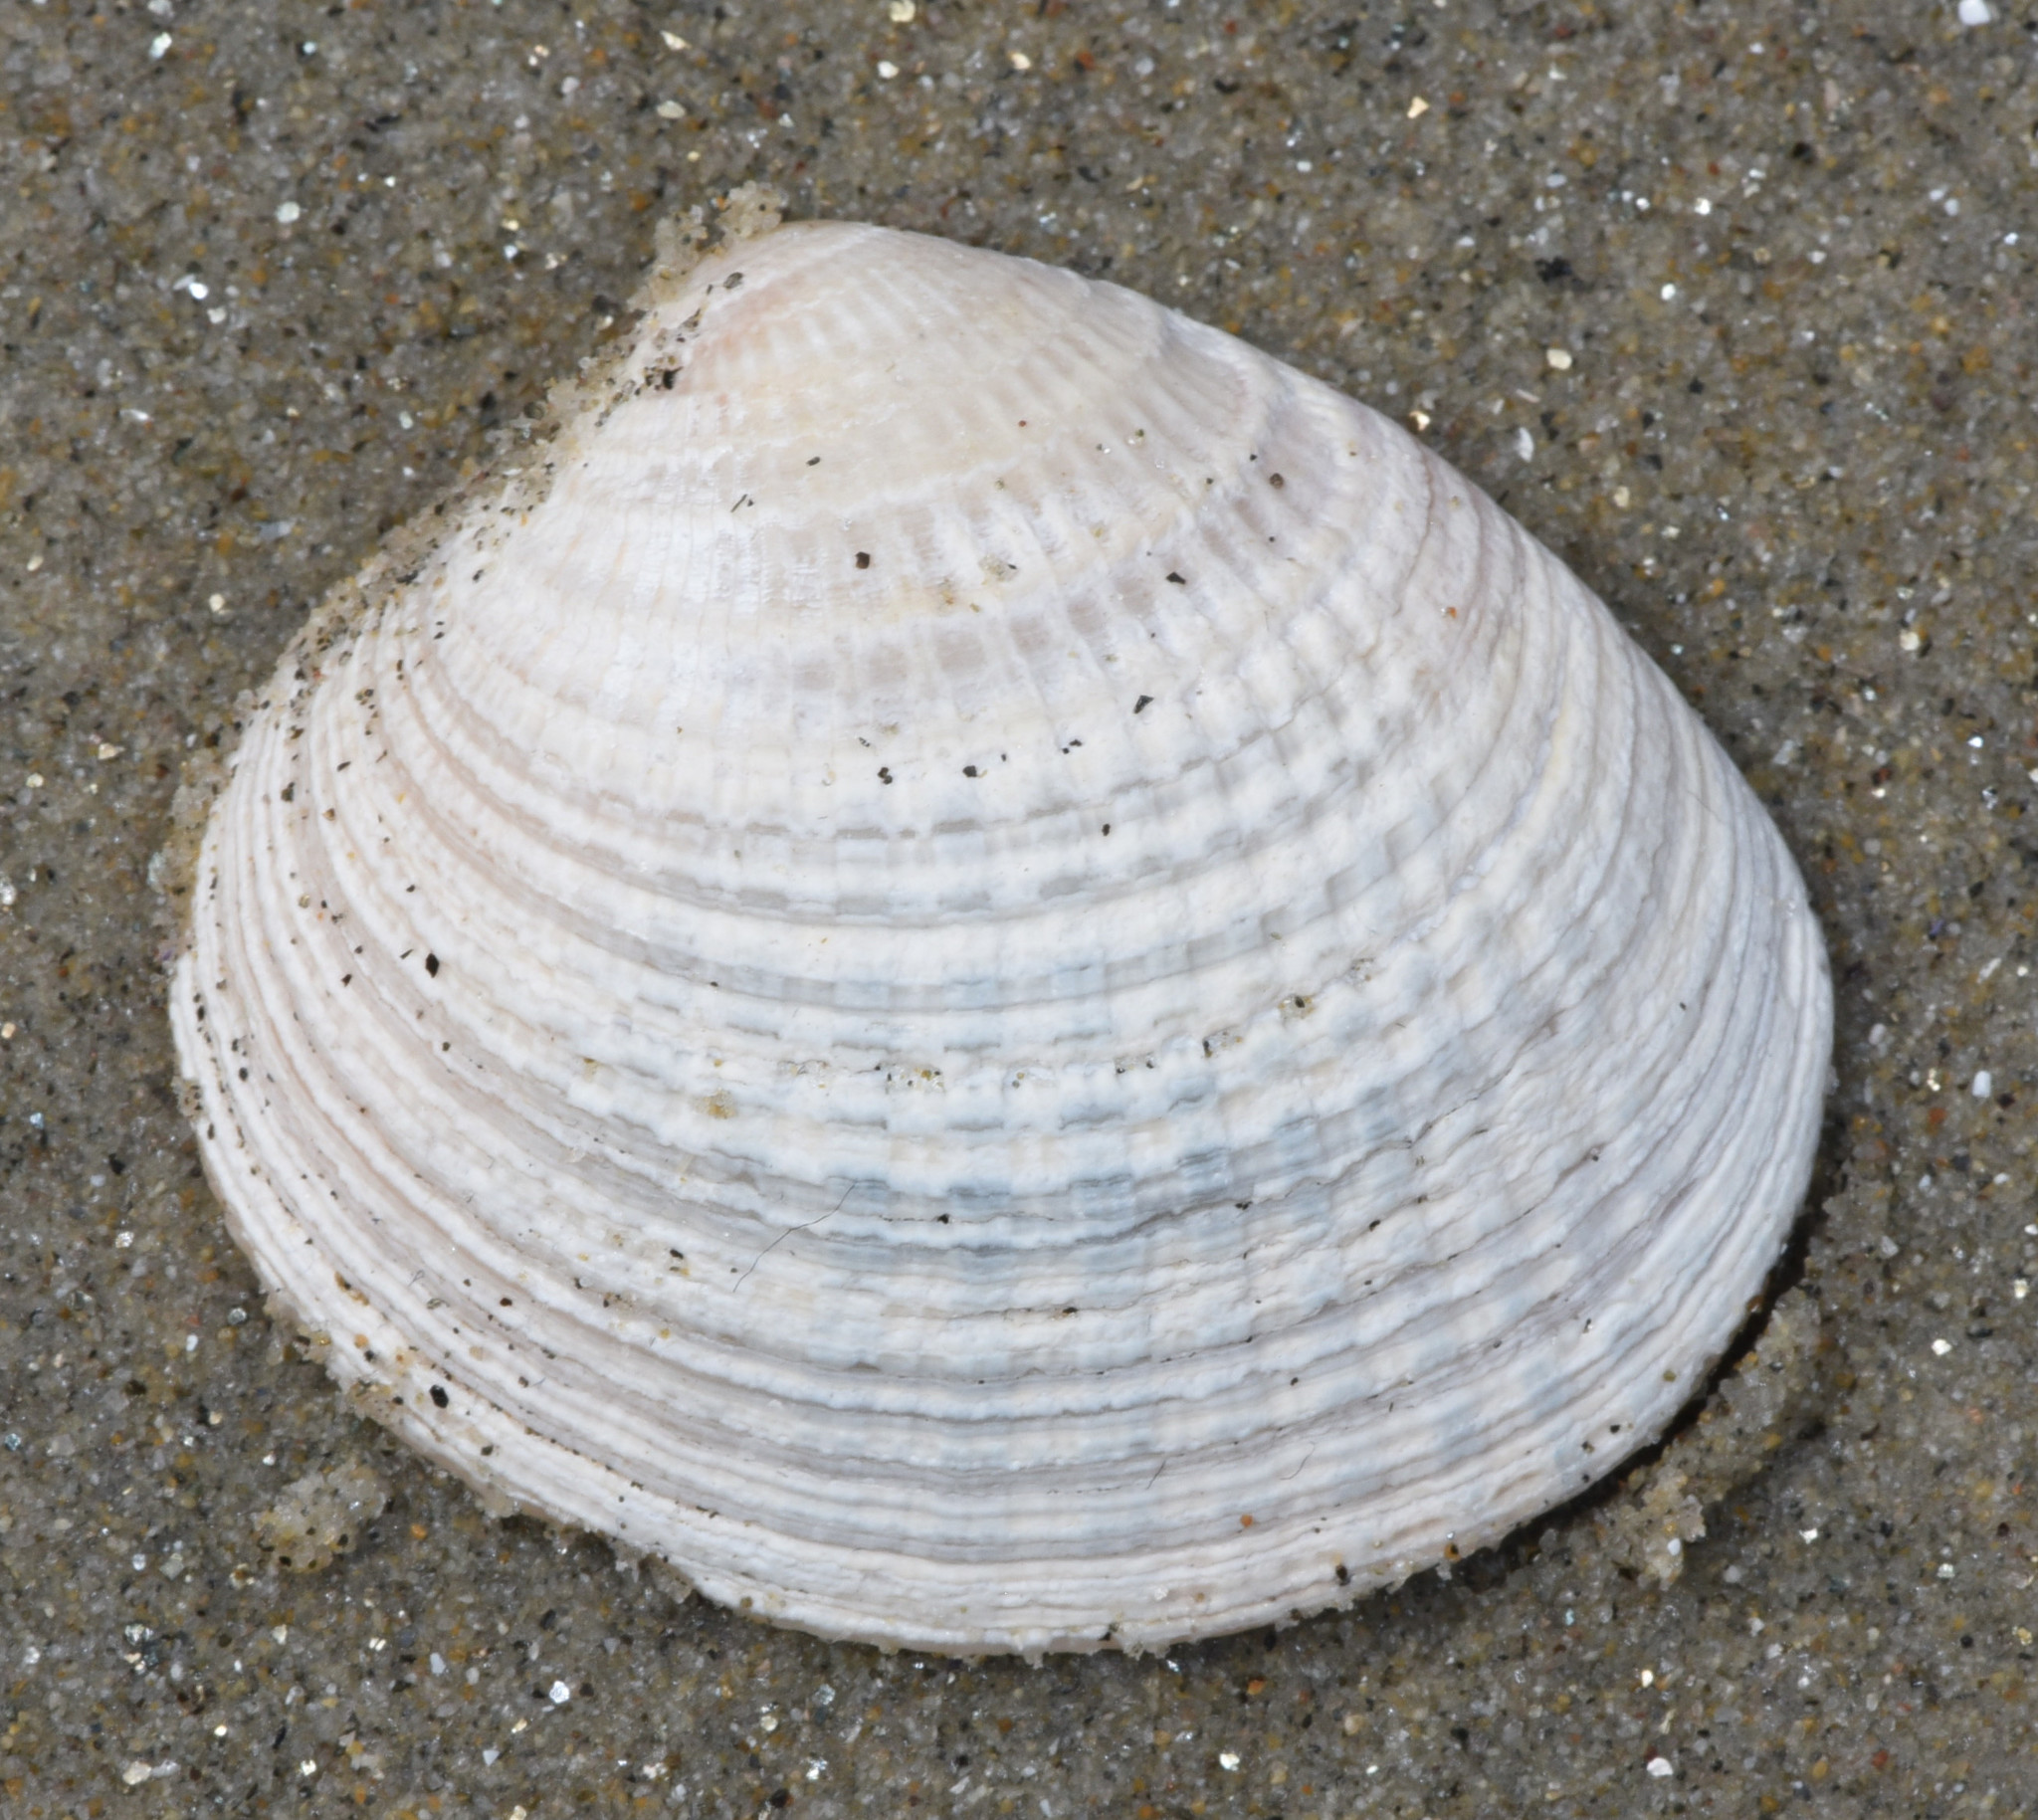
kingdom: Animalia
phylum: Mollusca
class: Bivalvia
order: Venerida
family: Veneridae
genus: Chione
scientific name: Chione undatella
